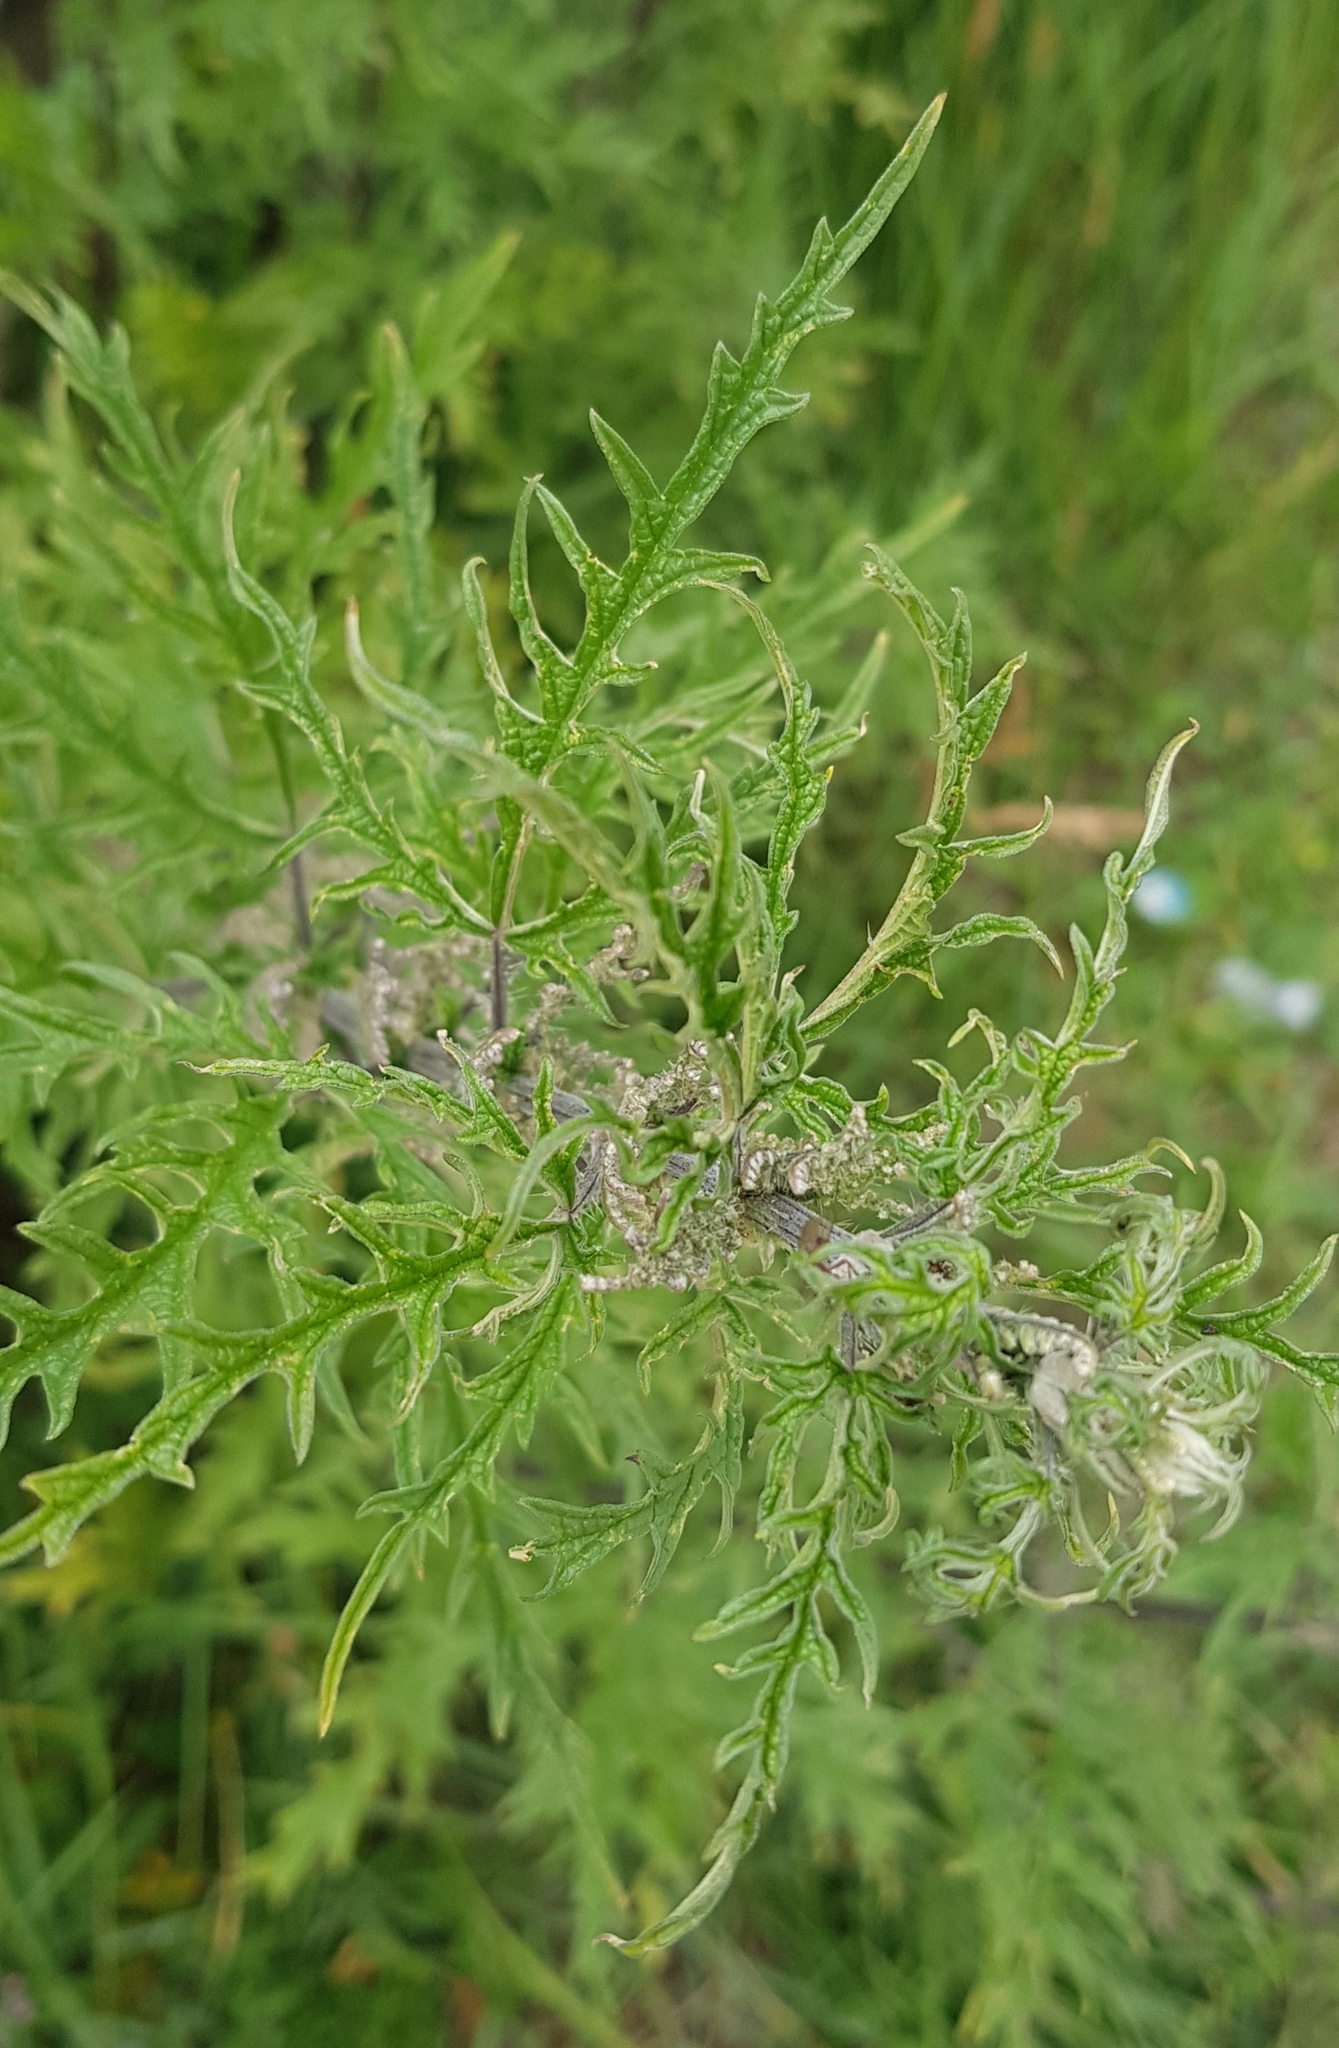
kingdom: Plantae
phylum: Tracheophyta
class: Magnoliopsida
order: Rosales
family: Urticaceae
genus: Urtica
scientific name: Urtica cannabina
